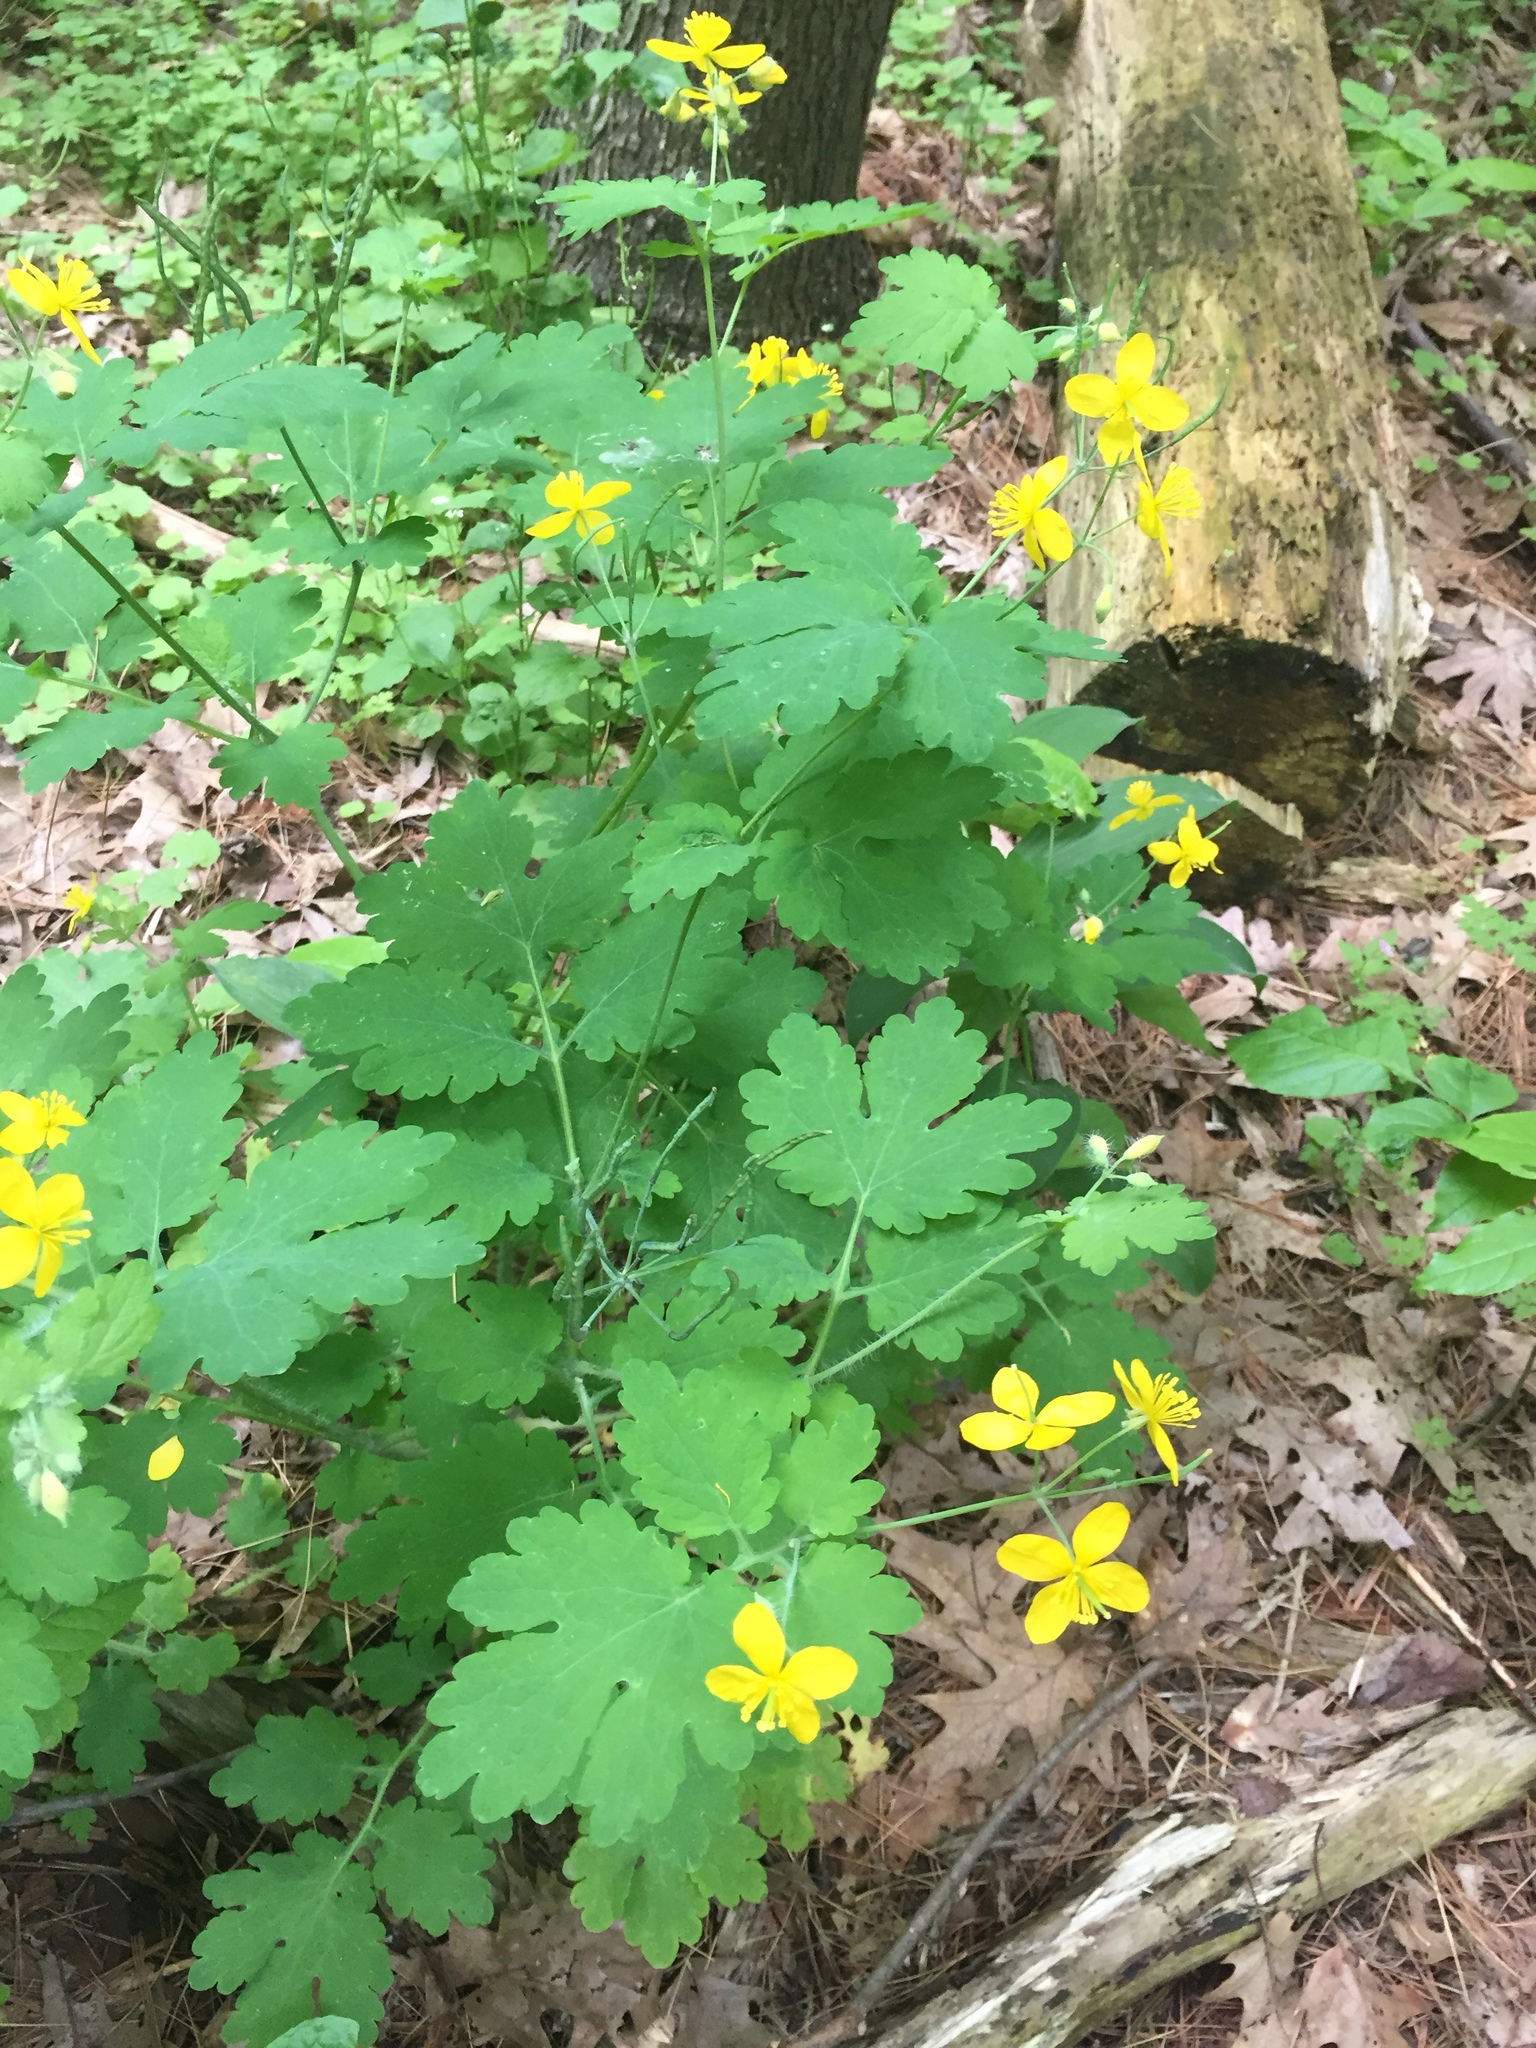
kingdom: Plantae
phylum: Tracheophyta
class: Magnoliopsida
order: Ranunculales
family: Papaveraceae
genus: Chelidonium
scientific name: Chelidonium majus
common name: Greater celandine
